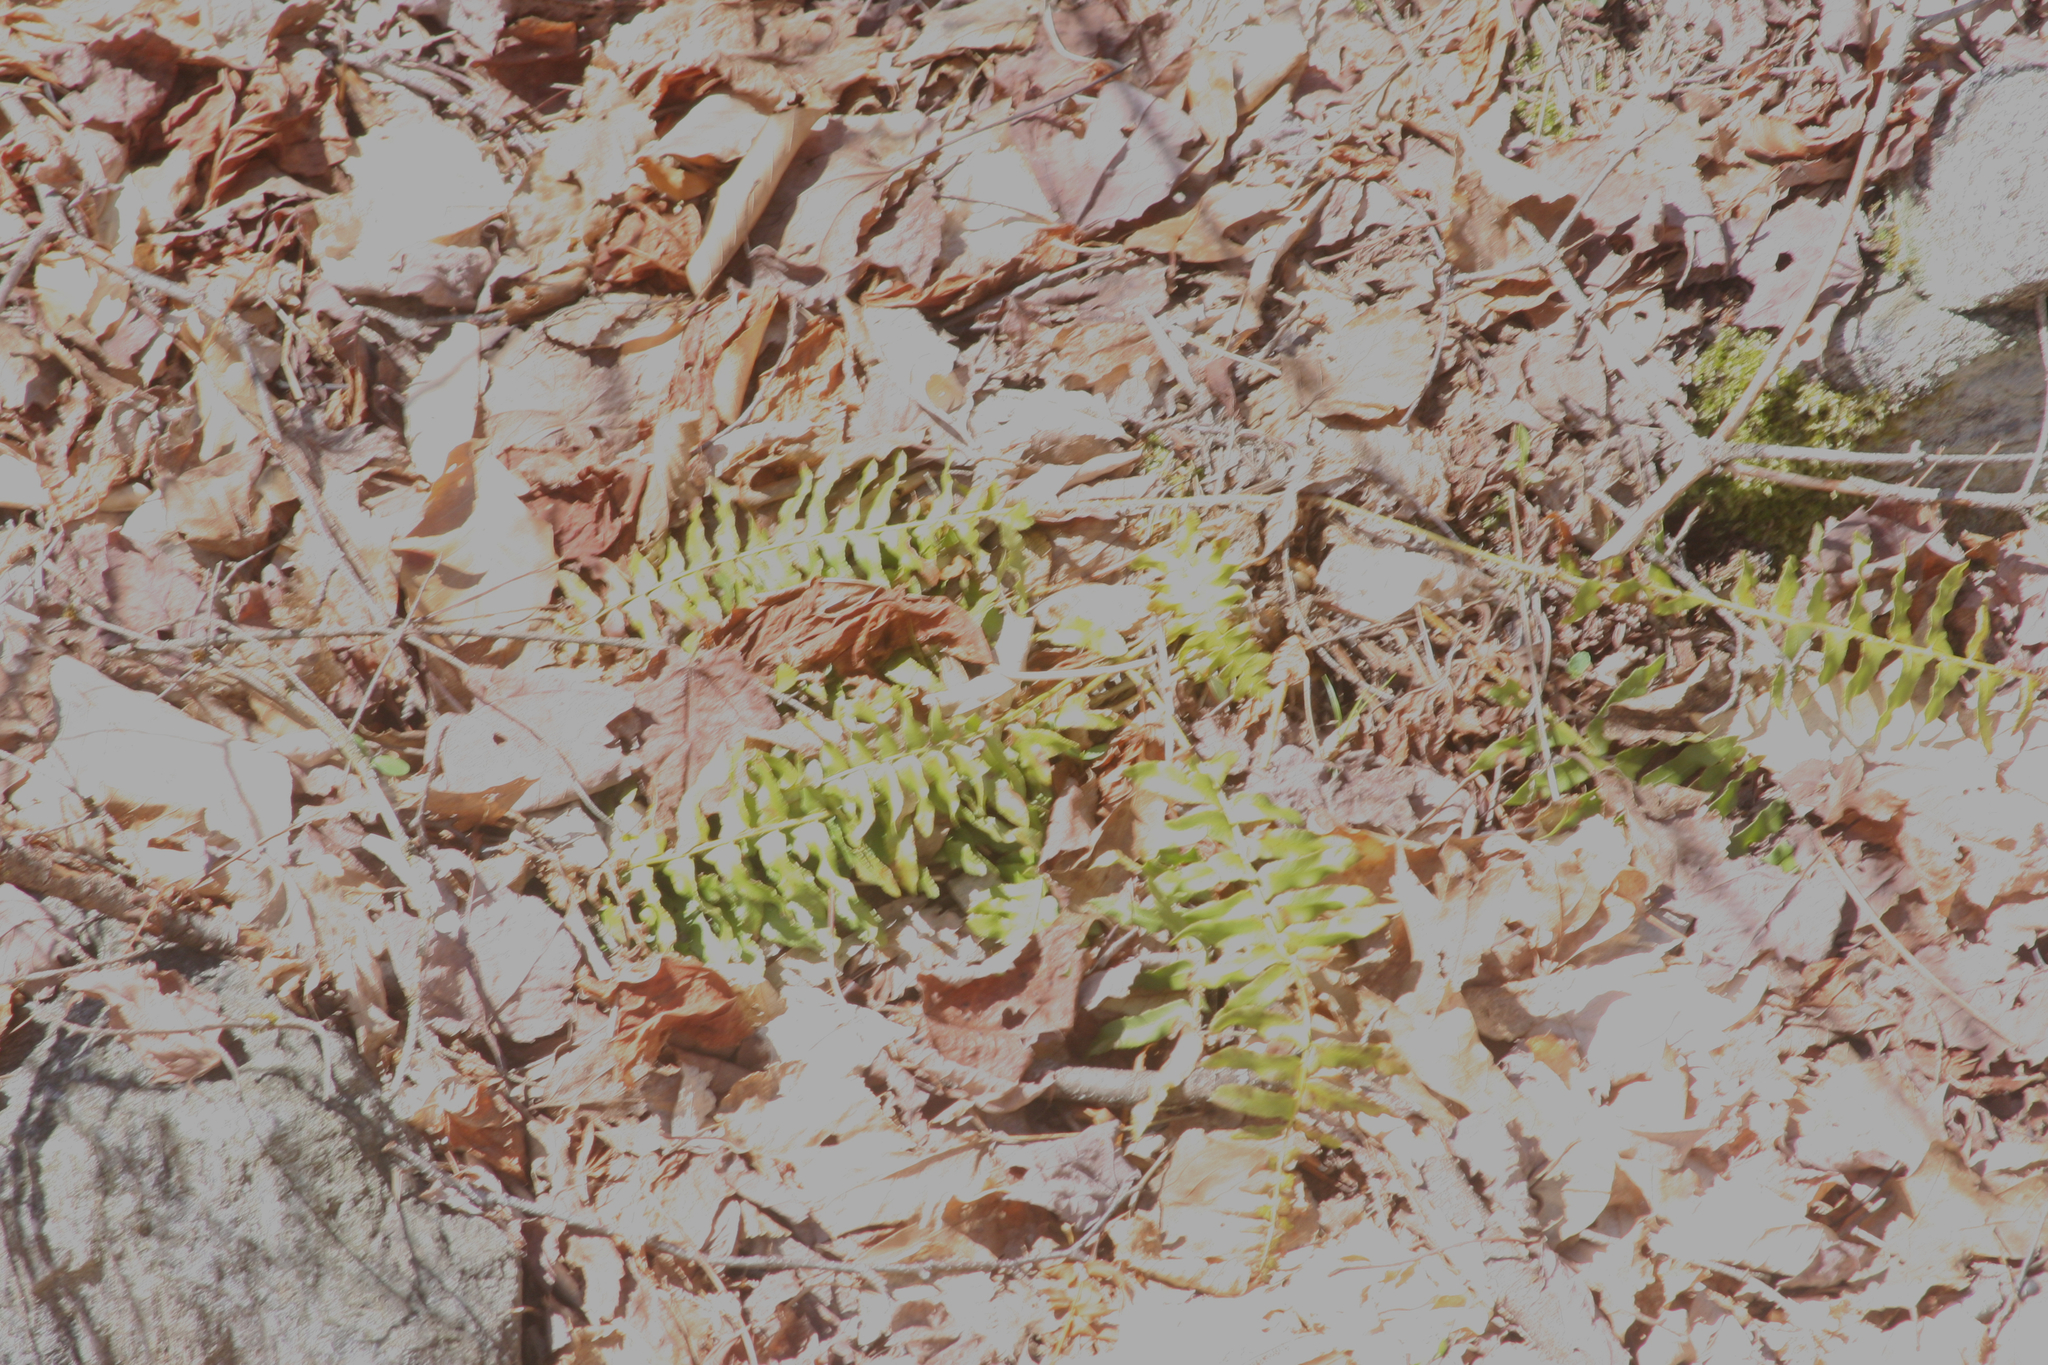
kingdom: Plantae
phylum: Tracheophyta
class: Polypodiopsida
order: Polypodiales
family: Dryopteridaceae
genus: Polystichum
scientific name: Polystichum acrostichoides
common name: Christmas fern
